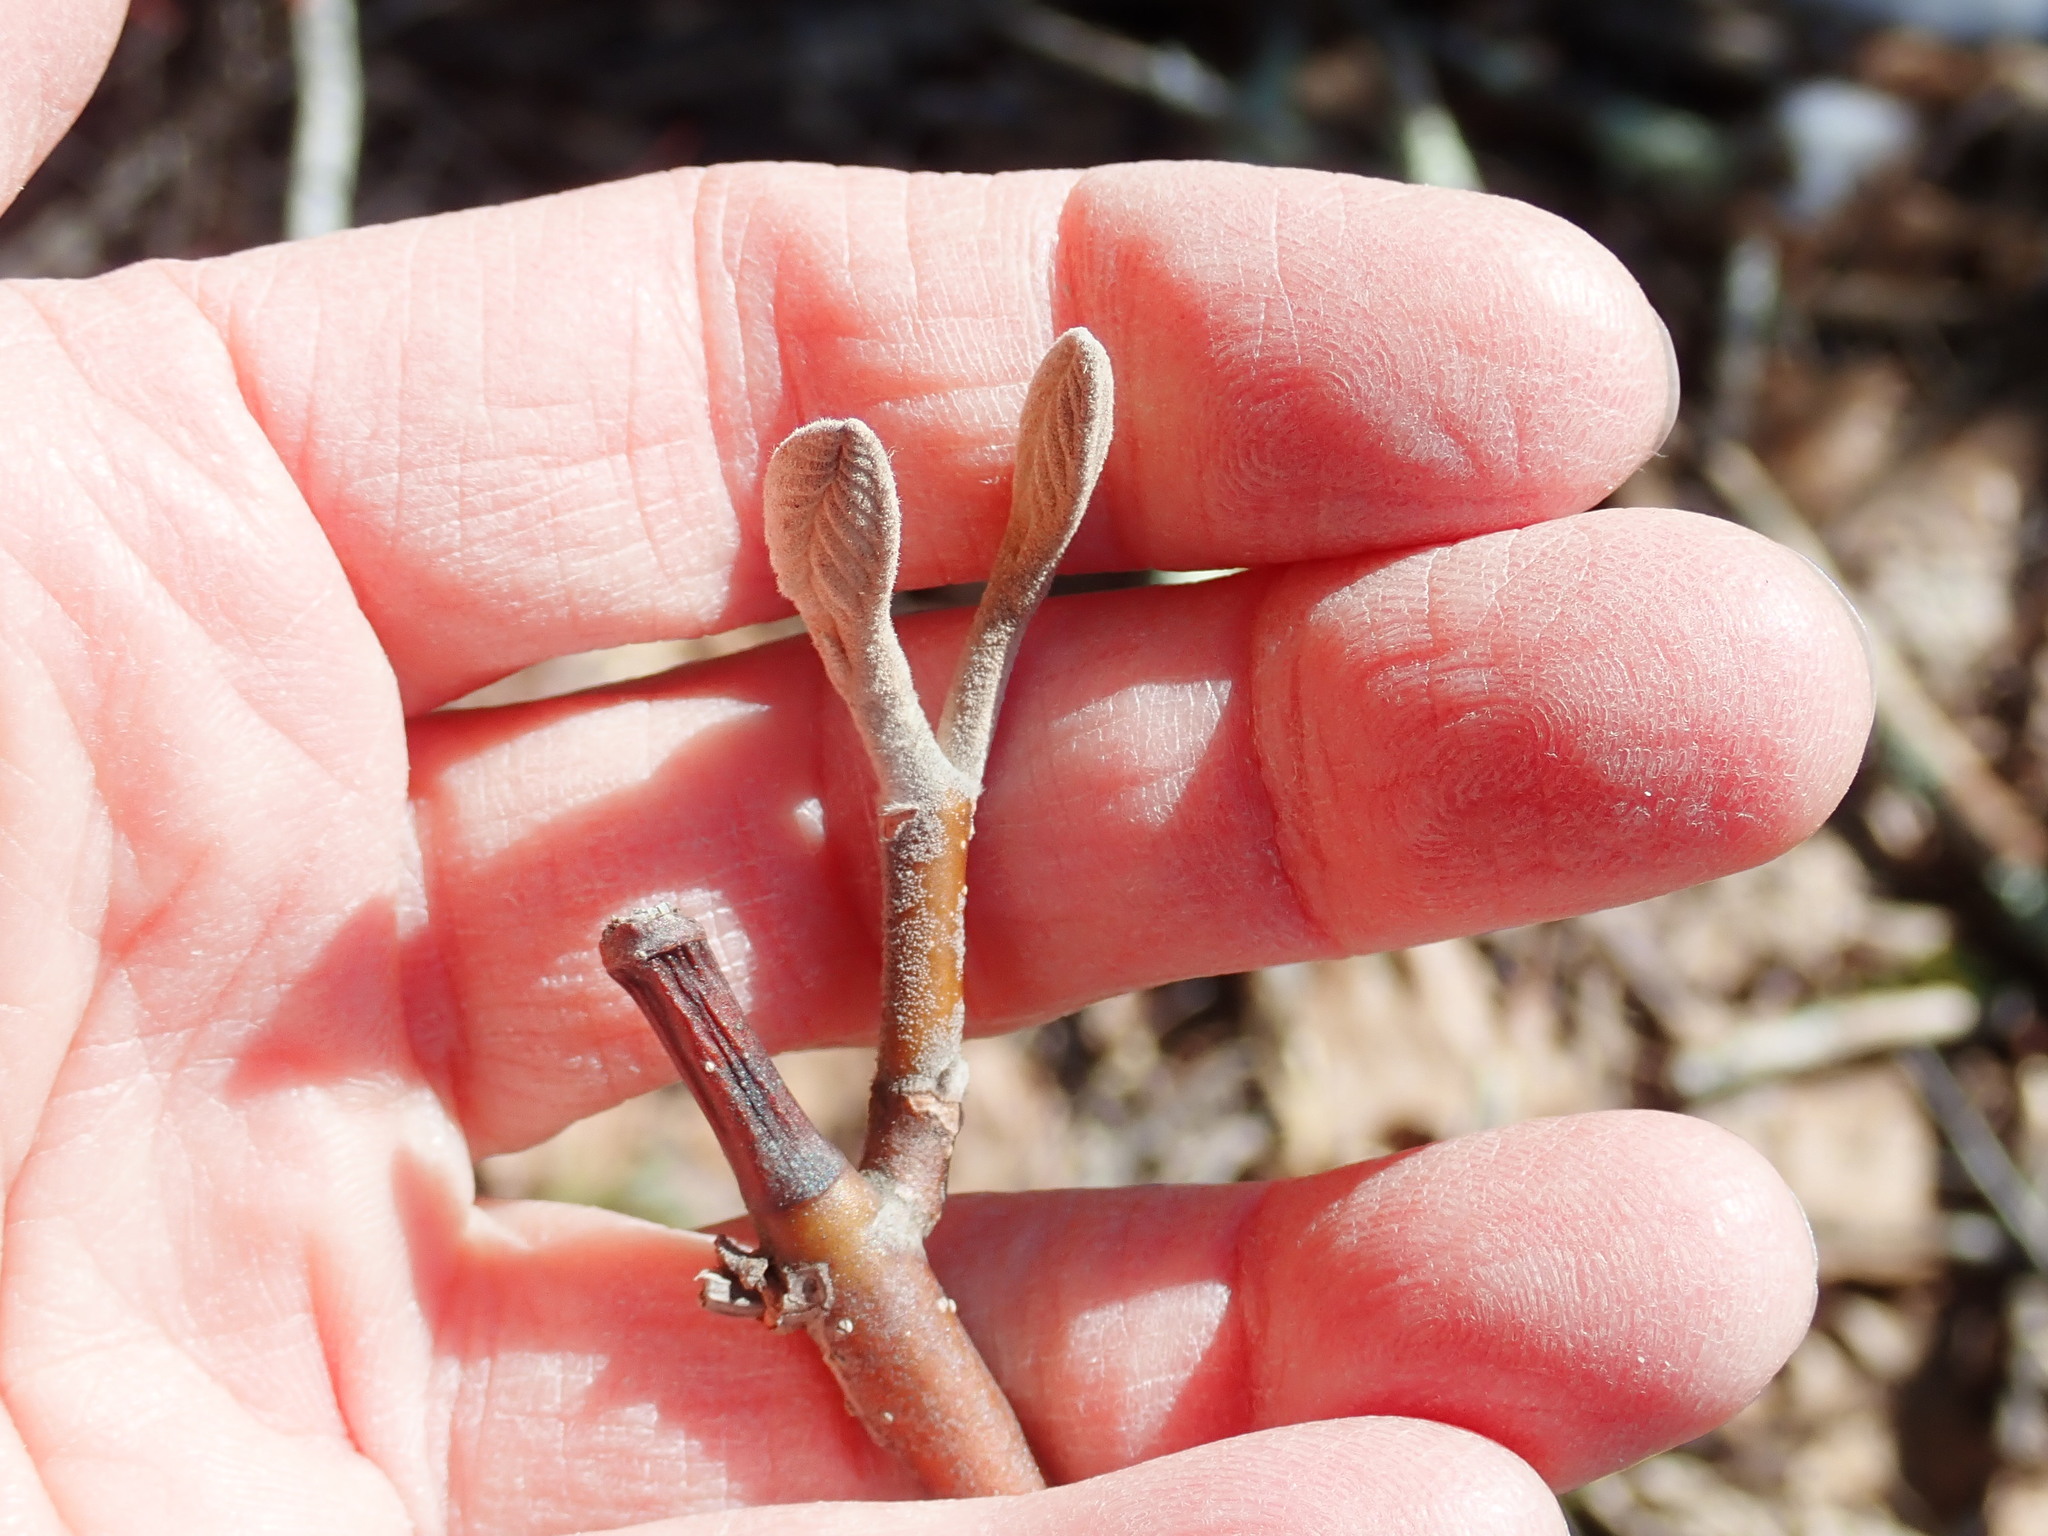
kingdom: Plantae
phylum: Tracheophyta
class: Magnoliopsida
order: Dipsacales
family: Viburnaceae
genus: Viburnum
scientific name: Viburnum lantanoides
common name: Hobblebush
